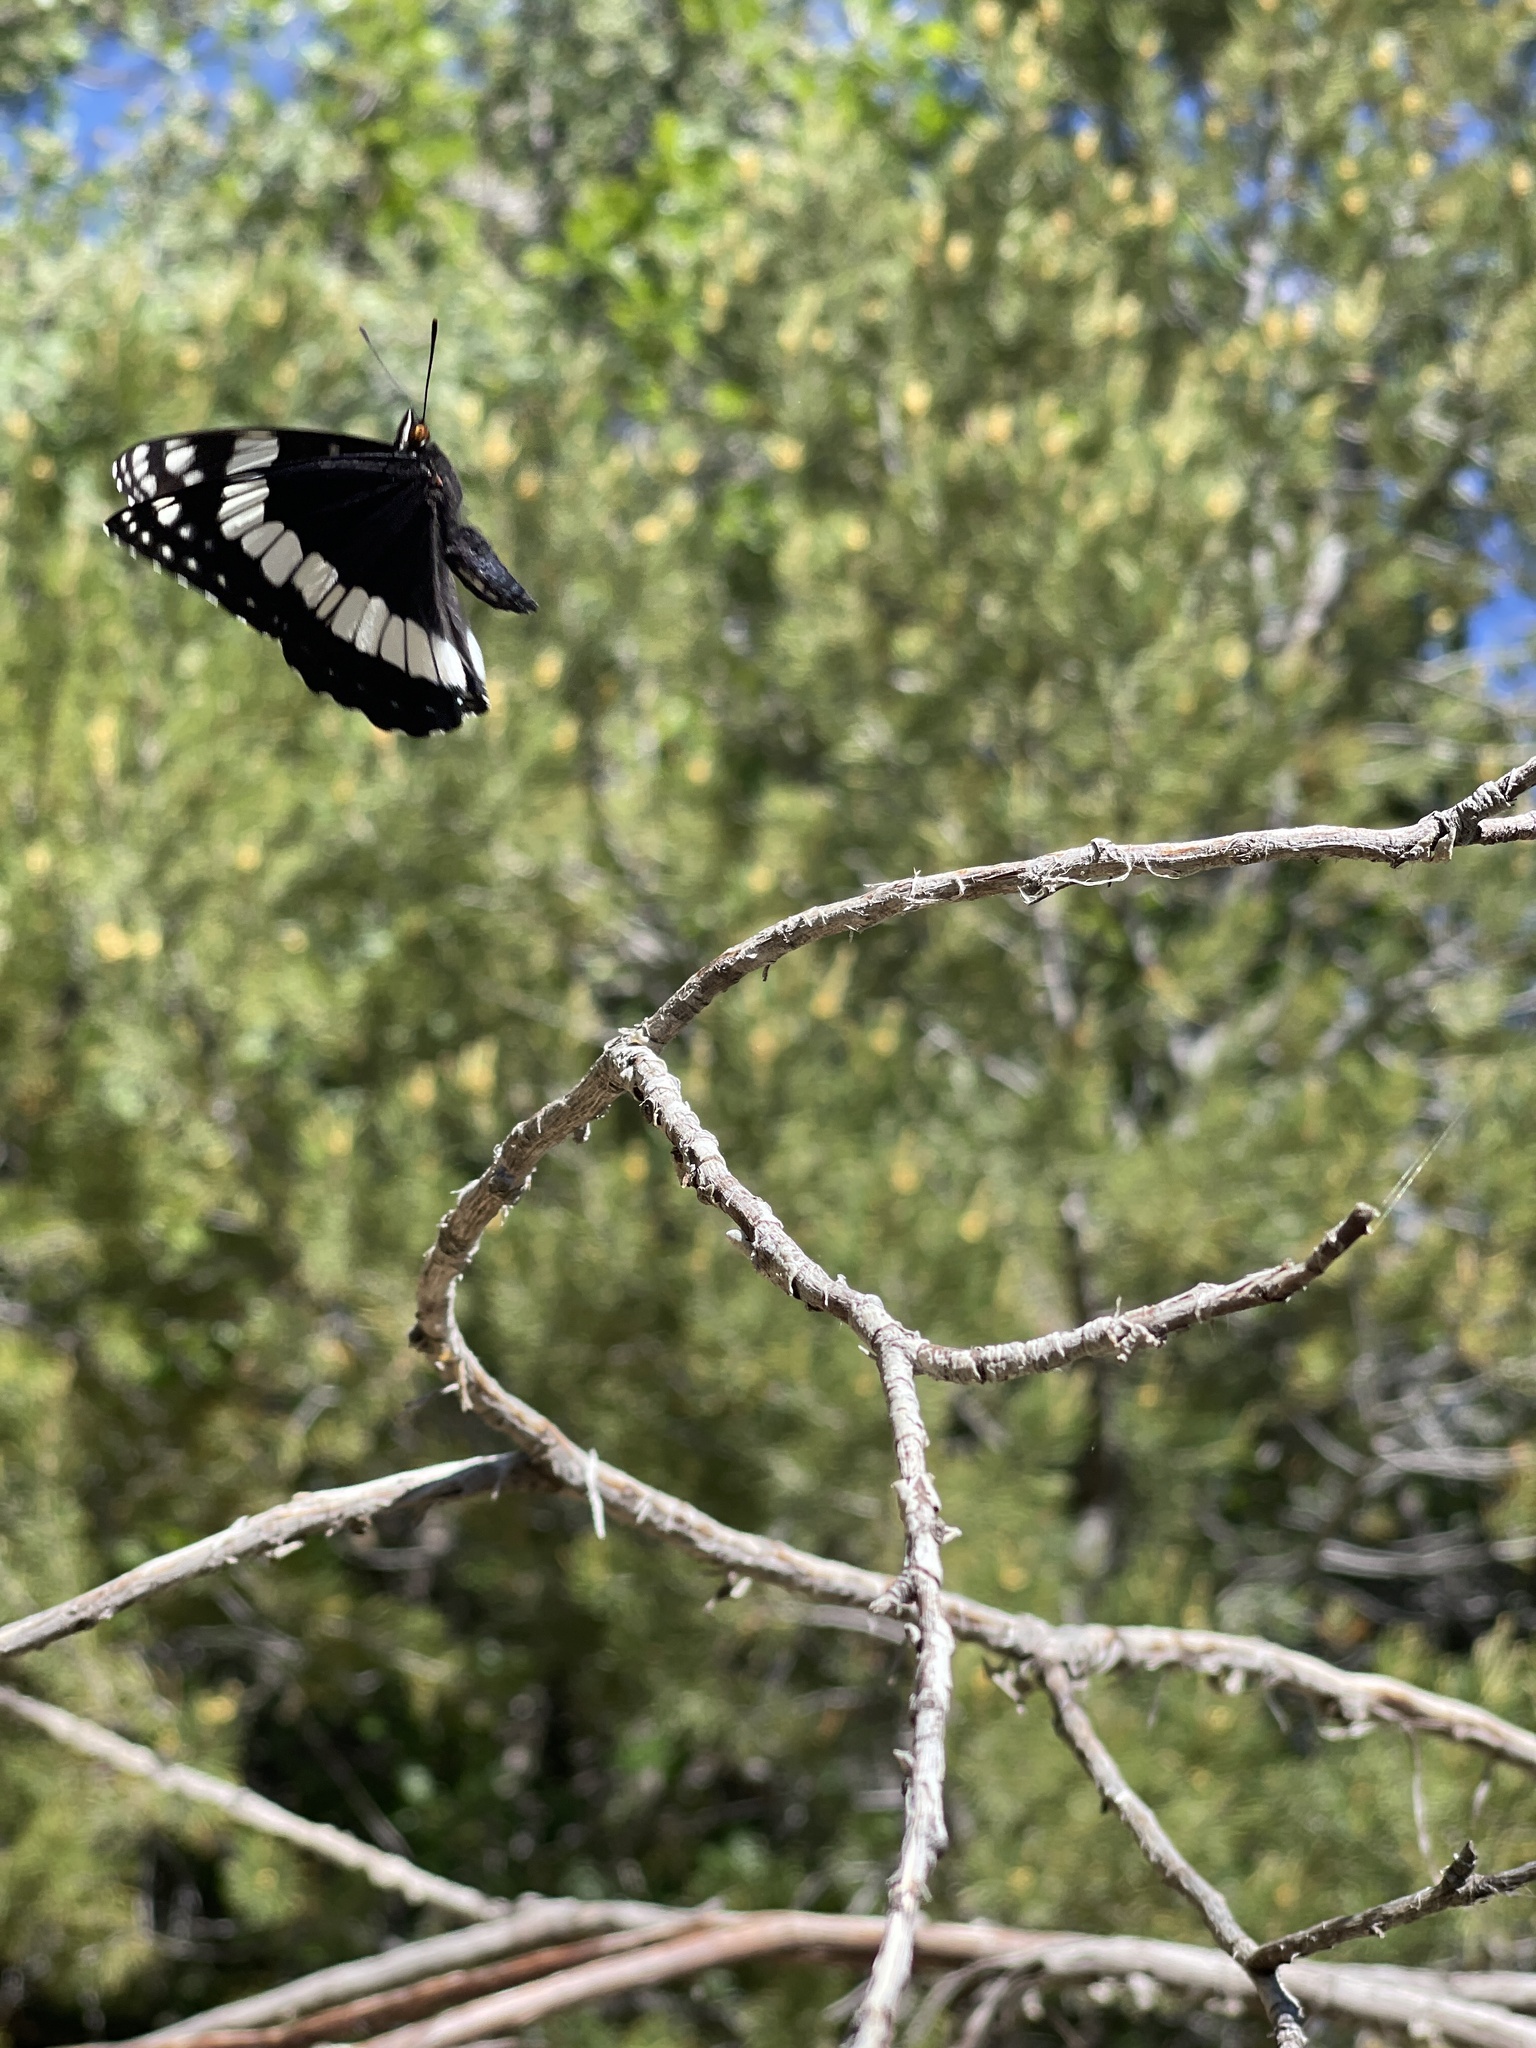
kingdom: Animalia
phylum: Arthropoda
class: Insecta
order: Lepidoptera
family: Nymphalidae
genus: Limenitis
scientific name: Limenitis weidemeyerii
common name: Weidemeyer's admiral
